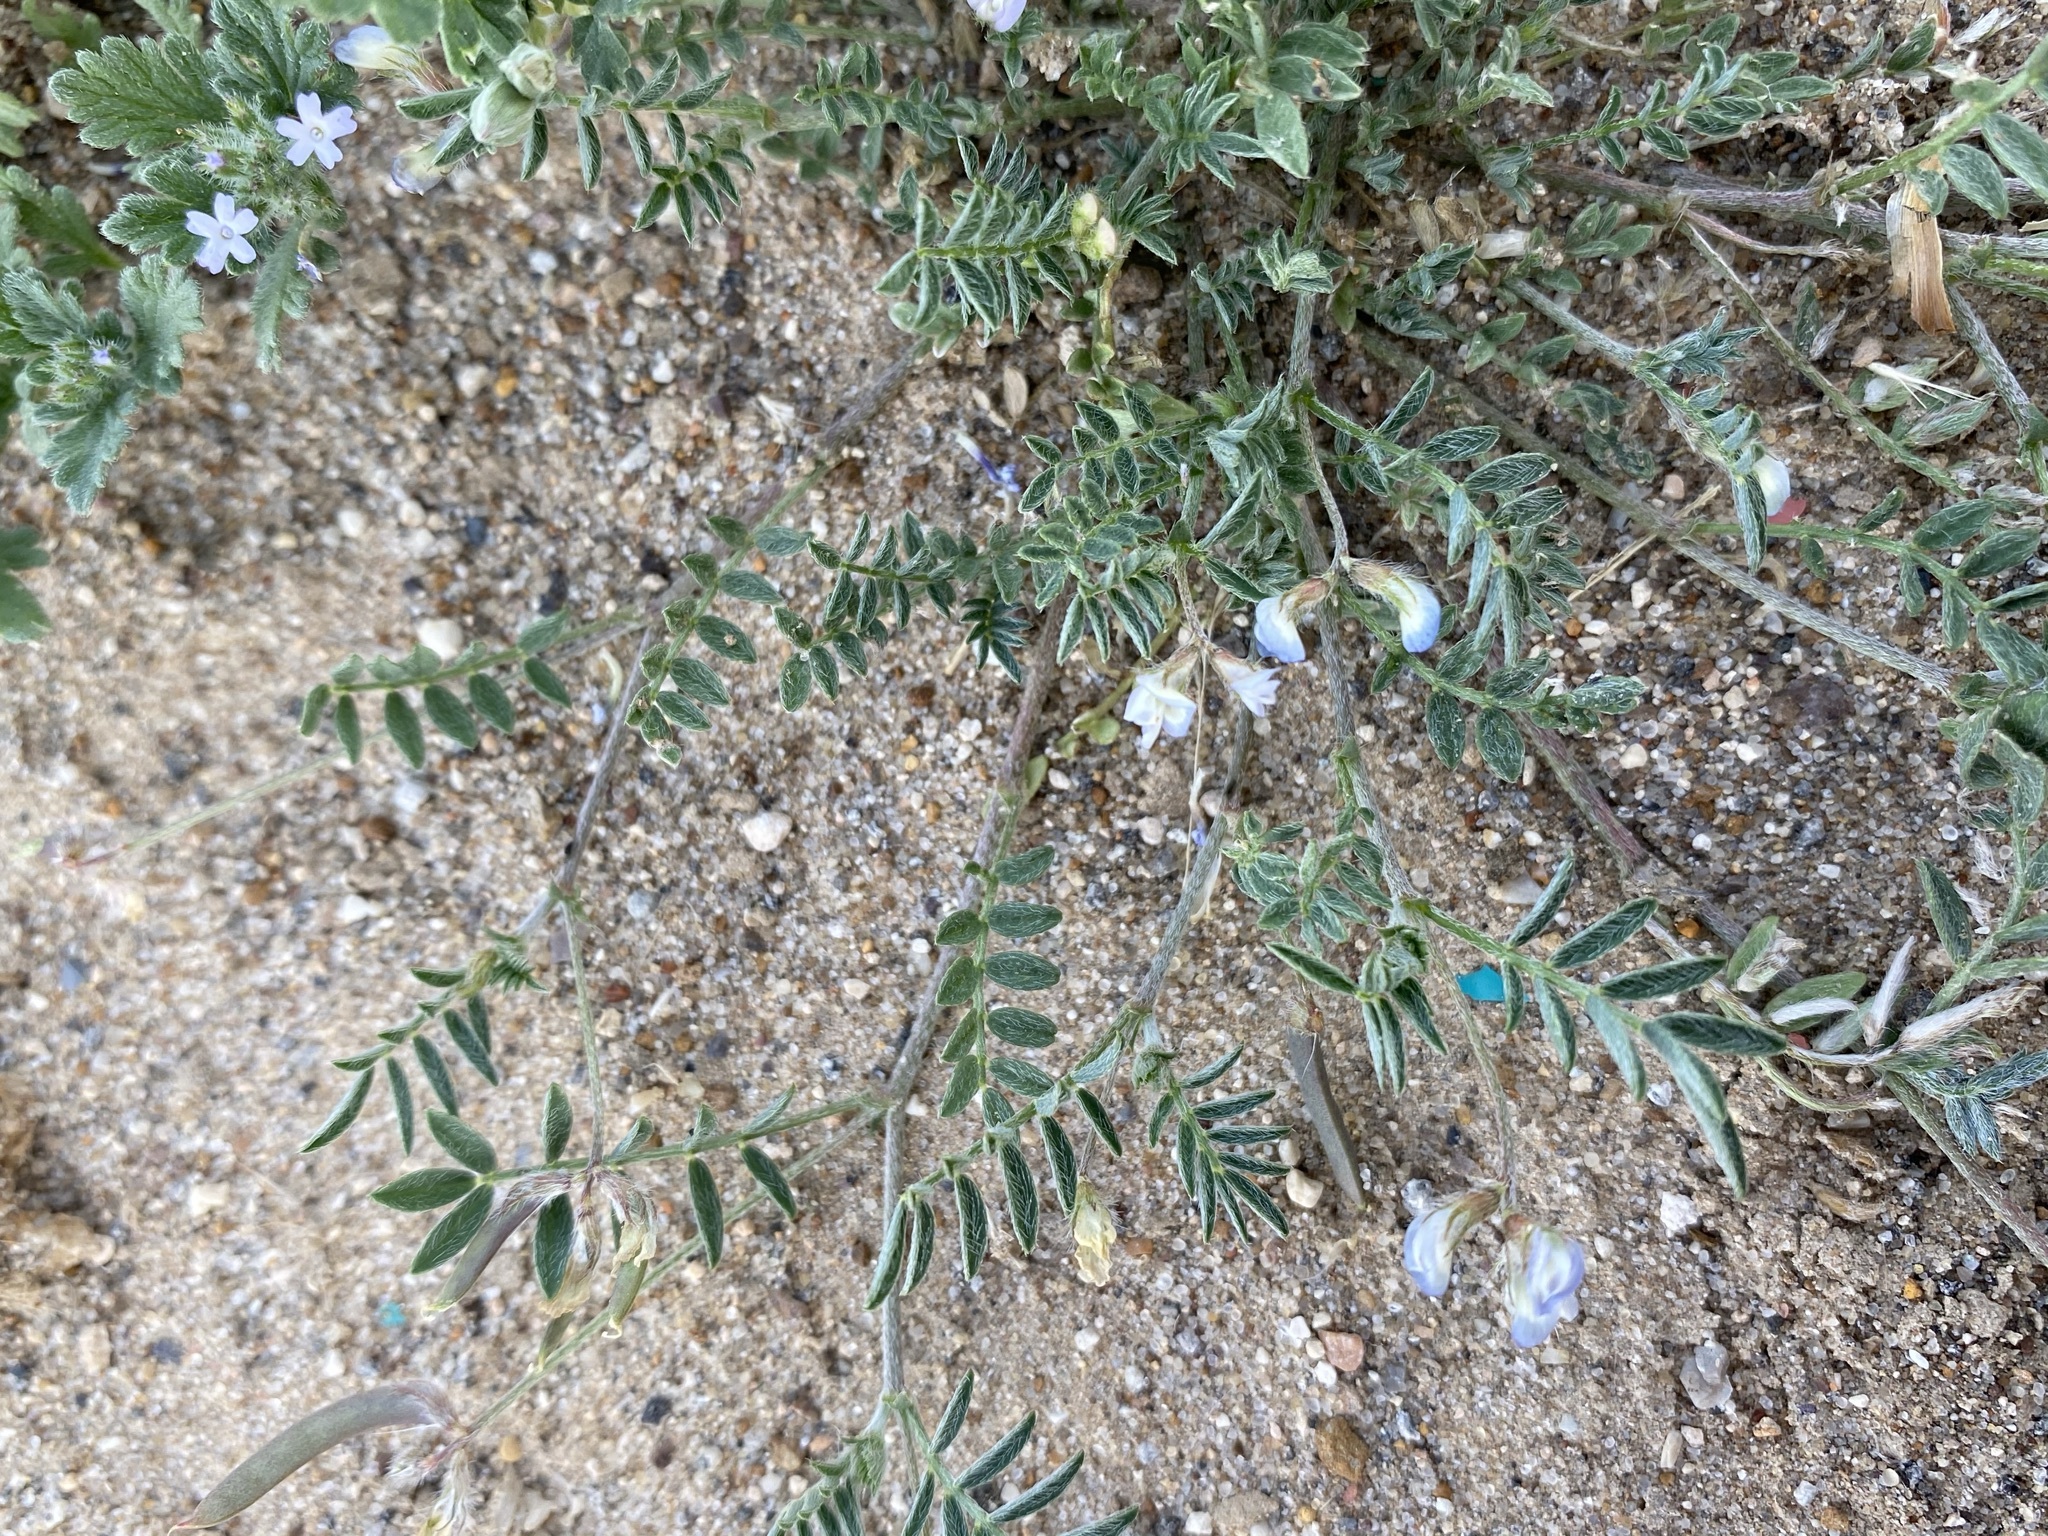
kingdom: Plantae
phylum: Tracheophyta
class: Magnoliopsida
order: Fabales
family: Fabaceae
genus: Astragalus
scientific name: Astragalus nuttallianus
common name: Smallflowered milkvetch
